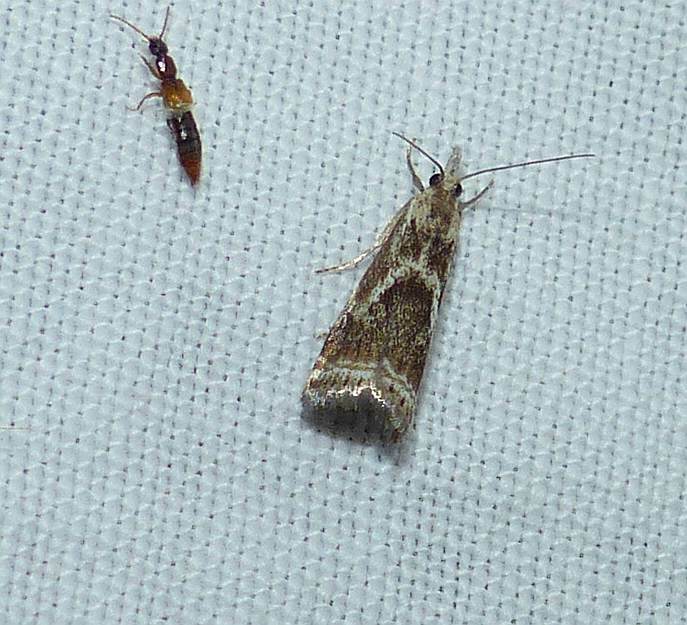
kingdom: Animalia
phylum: Arthropoda
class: Insecta
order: Lepidoptera
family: Crambidae
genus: Microcrambus
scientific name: Microcrambus elegans
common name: Elegant grass-veneer
